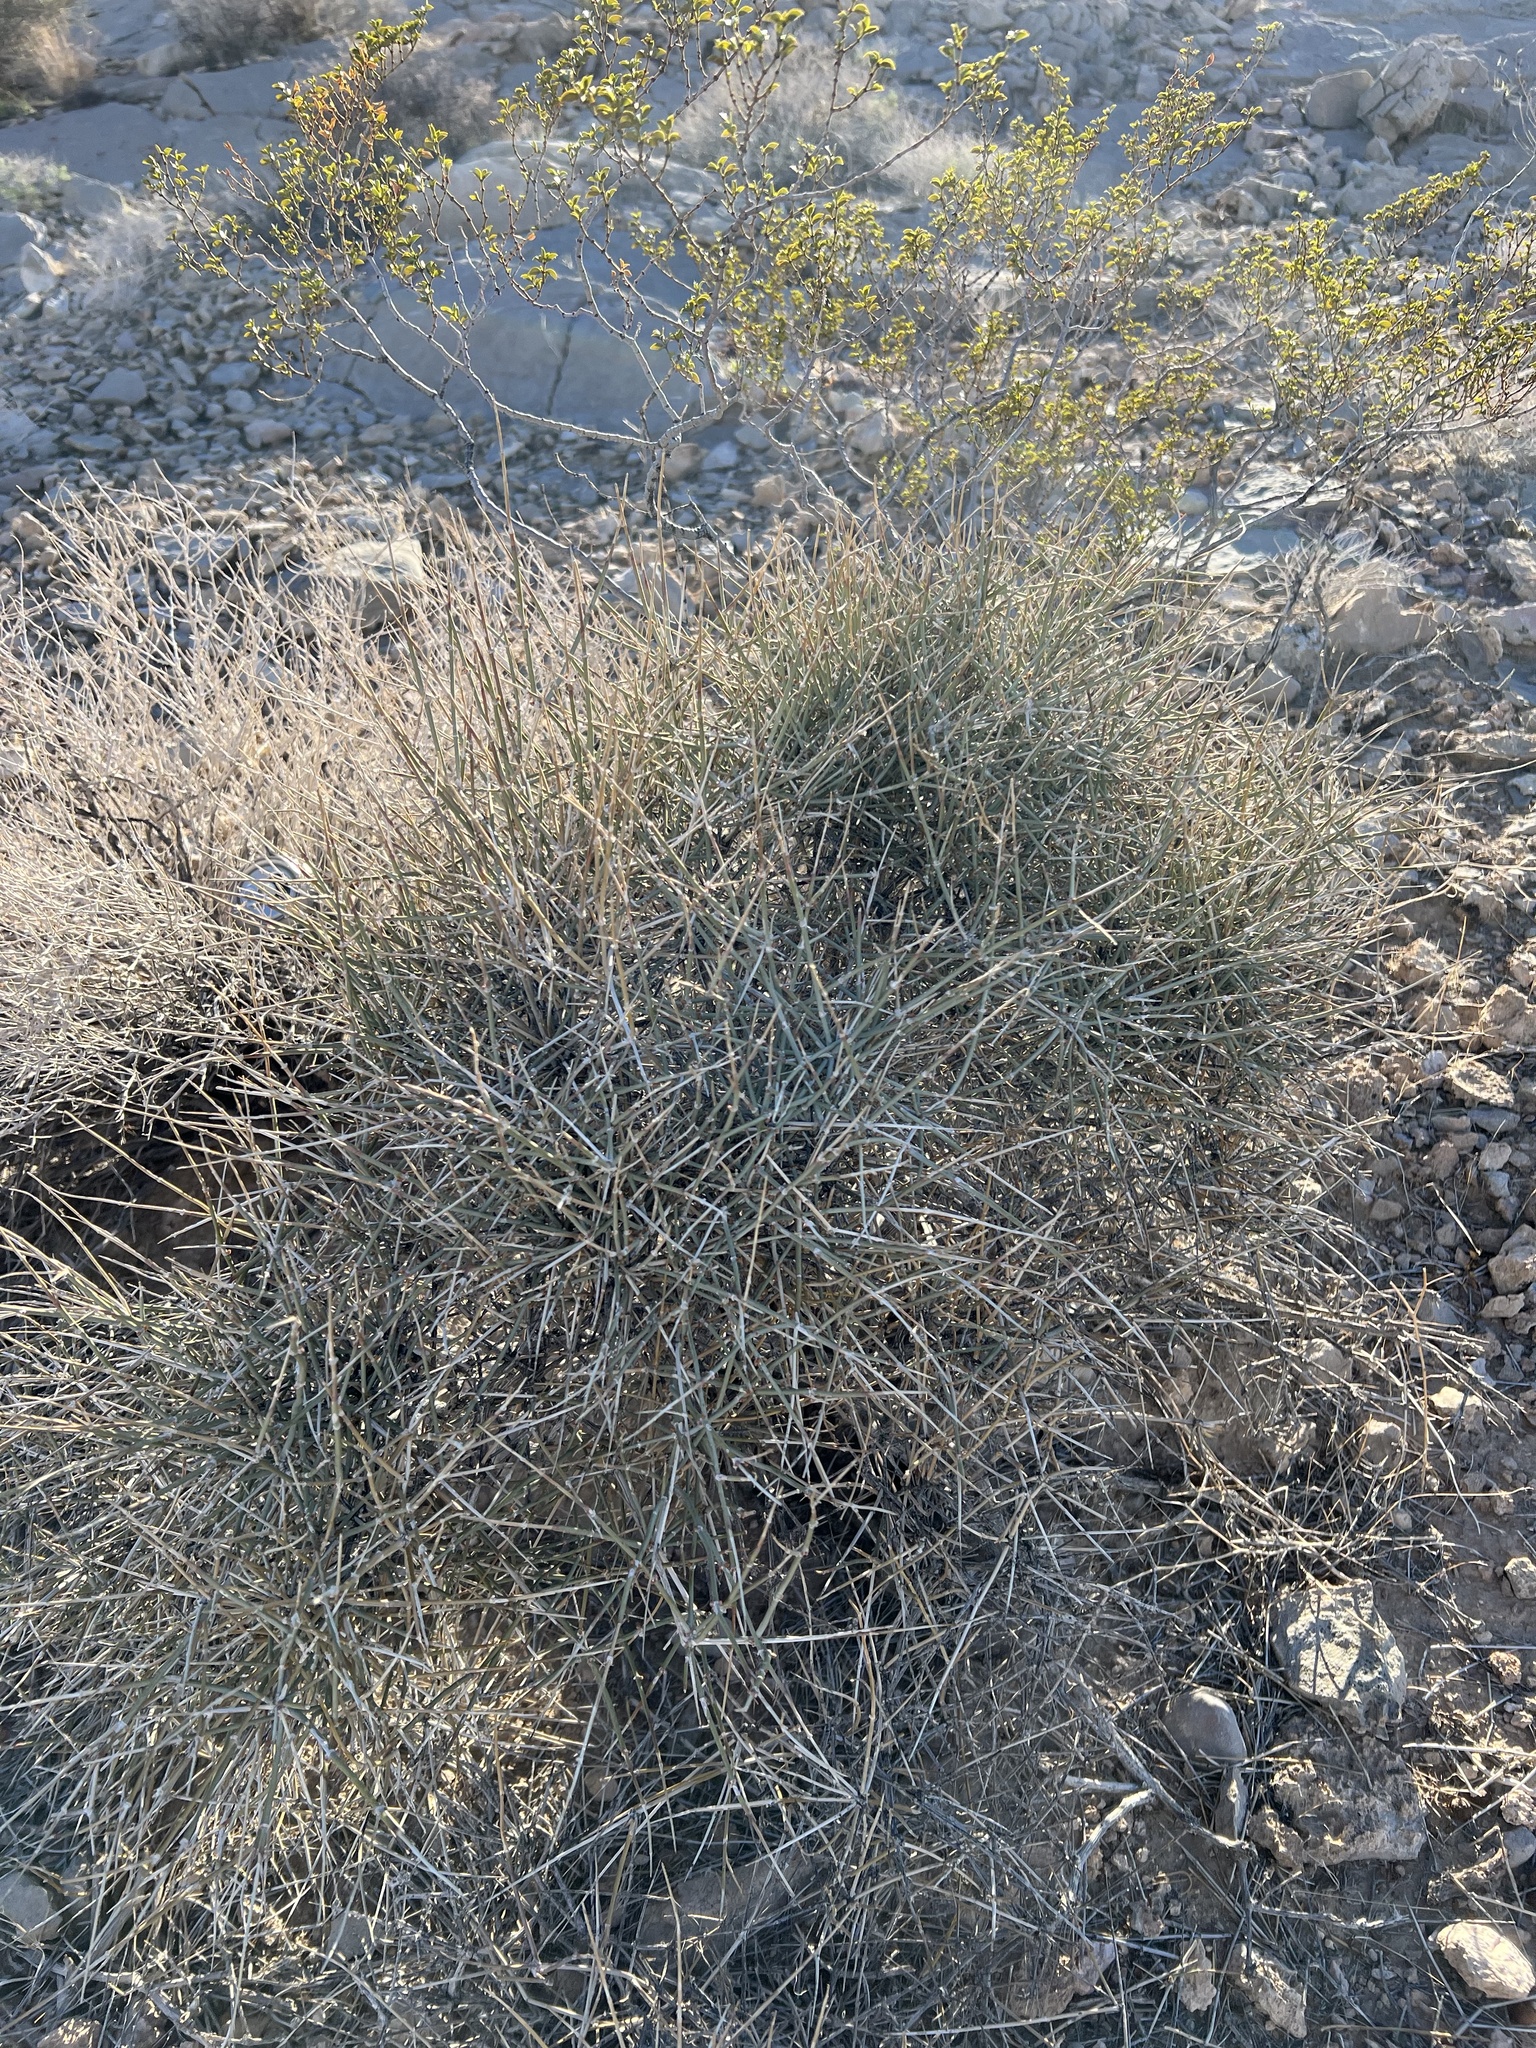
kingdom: Plantae
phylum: Tracheophyta
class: Gnetopsida
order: Ephedrales
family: Ephedraceae
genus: Ephedra
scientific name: Ephedra nevadensis
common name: Gray ephedra
